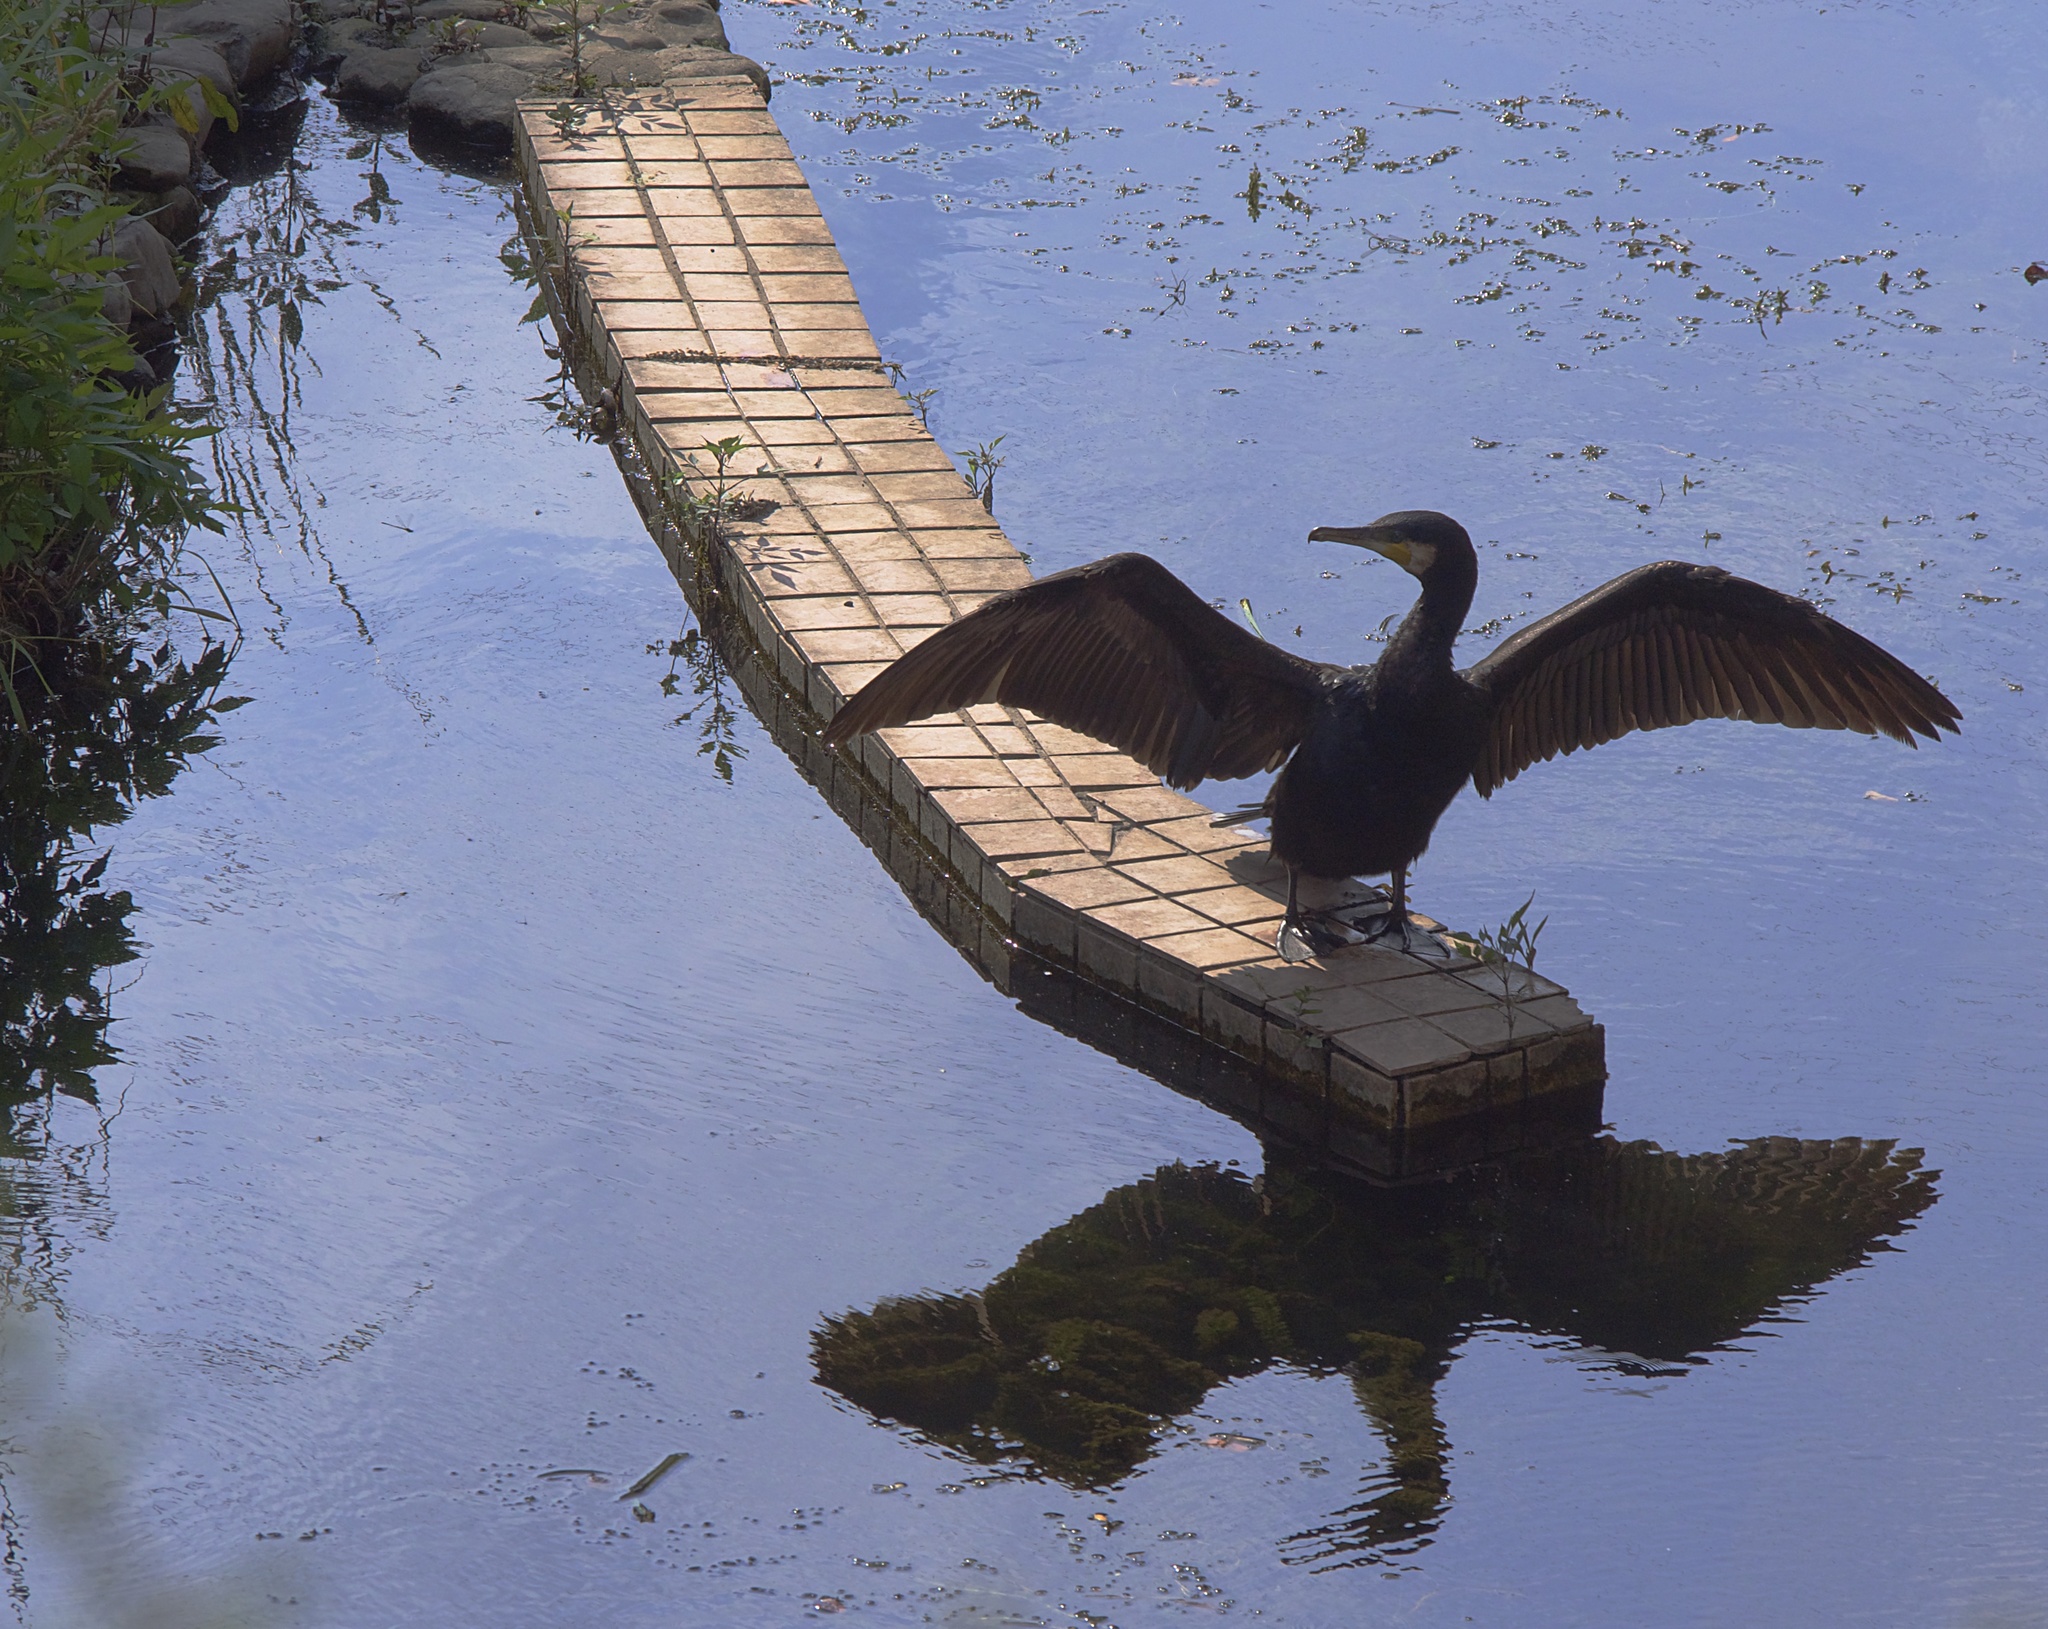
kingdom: Animalia
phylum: Chordata
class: Aves
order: Suliformes
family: Phalacrocoracidae
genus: Phalacrocorax
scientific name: Phalacrocorax carbo
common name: Great cormorant
